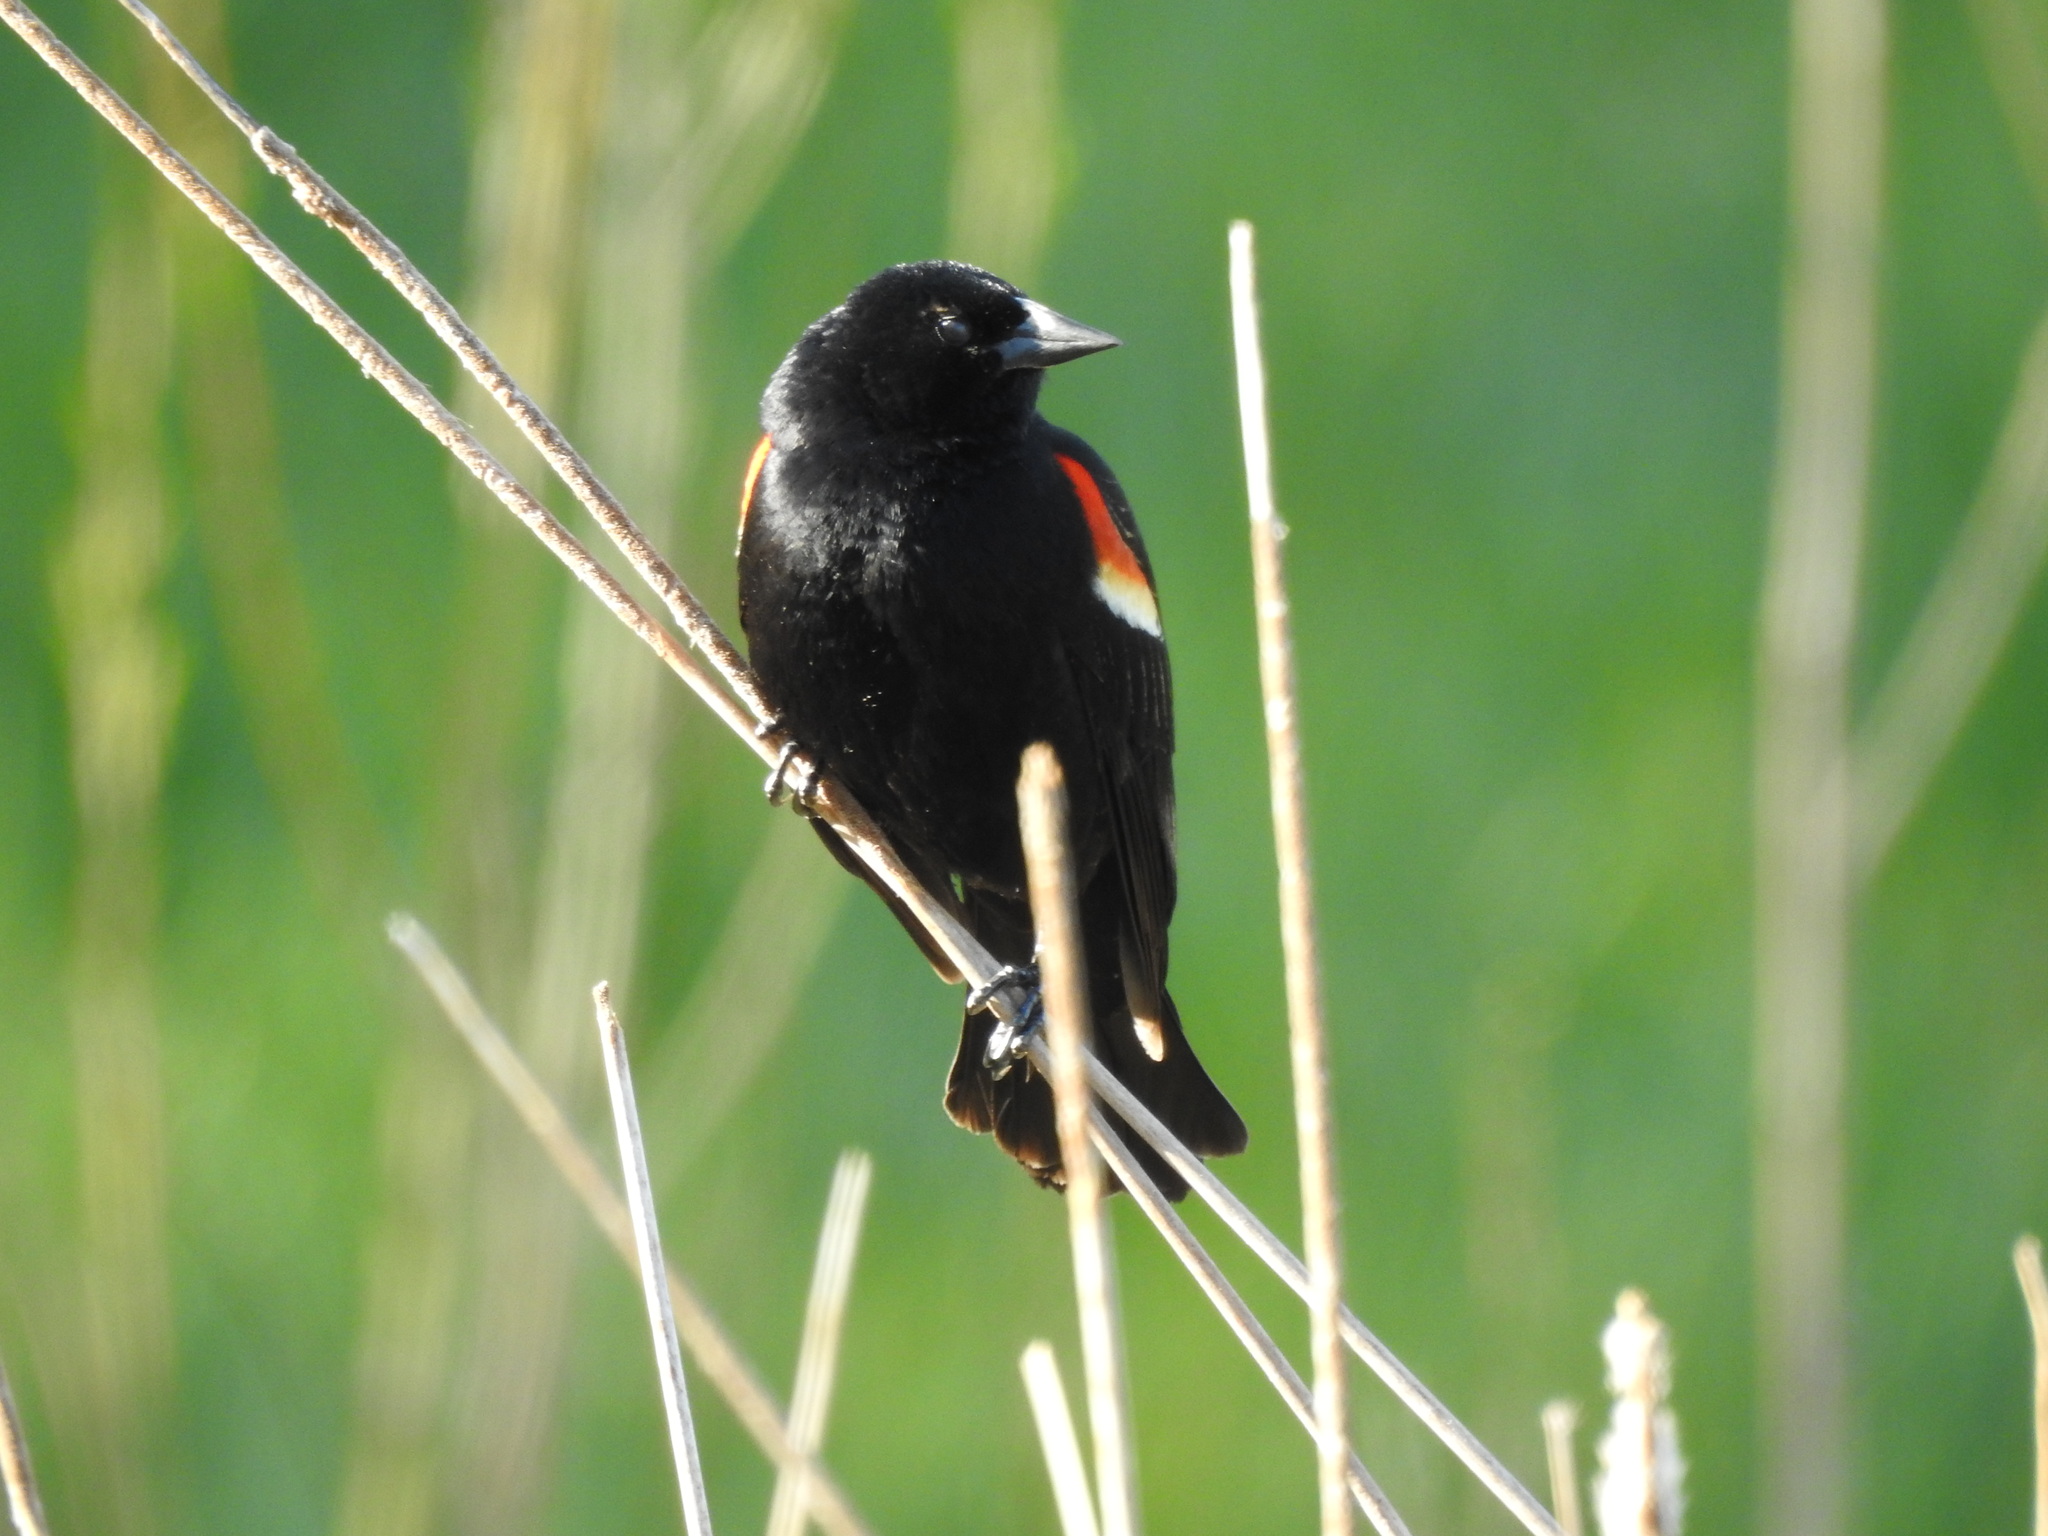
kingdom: Animalia
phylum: Chordata
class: Aves
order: Passeriformes
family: Icteridae
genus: Agelaius
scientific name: Agelaius phoeniceus
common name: Red-winged blackbird
